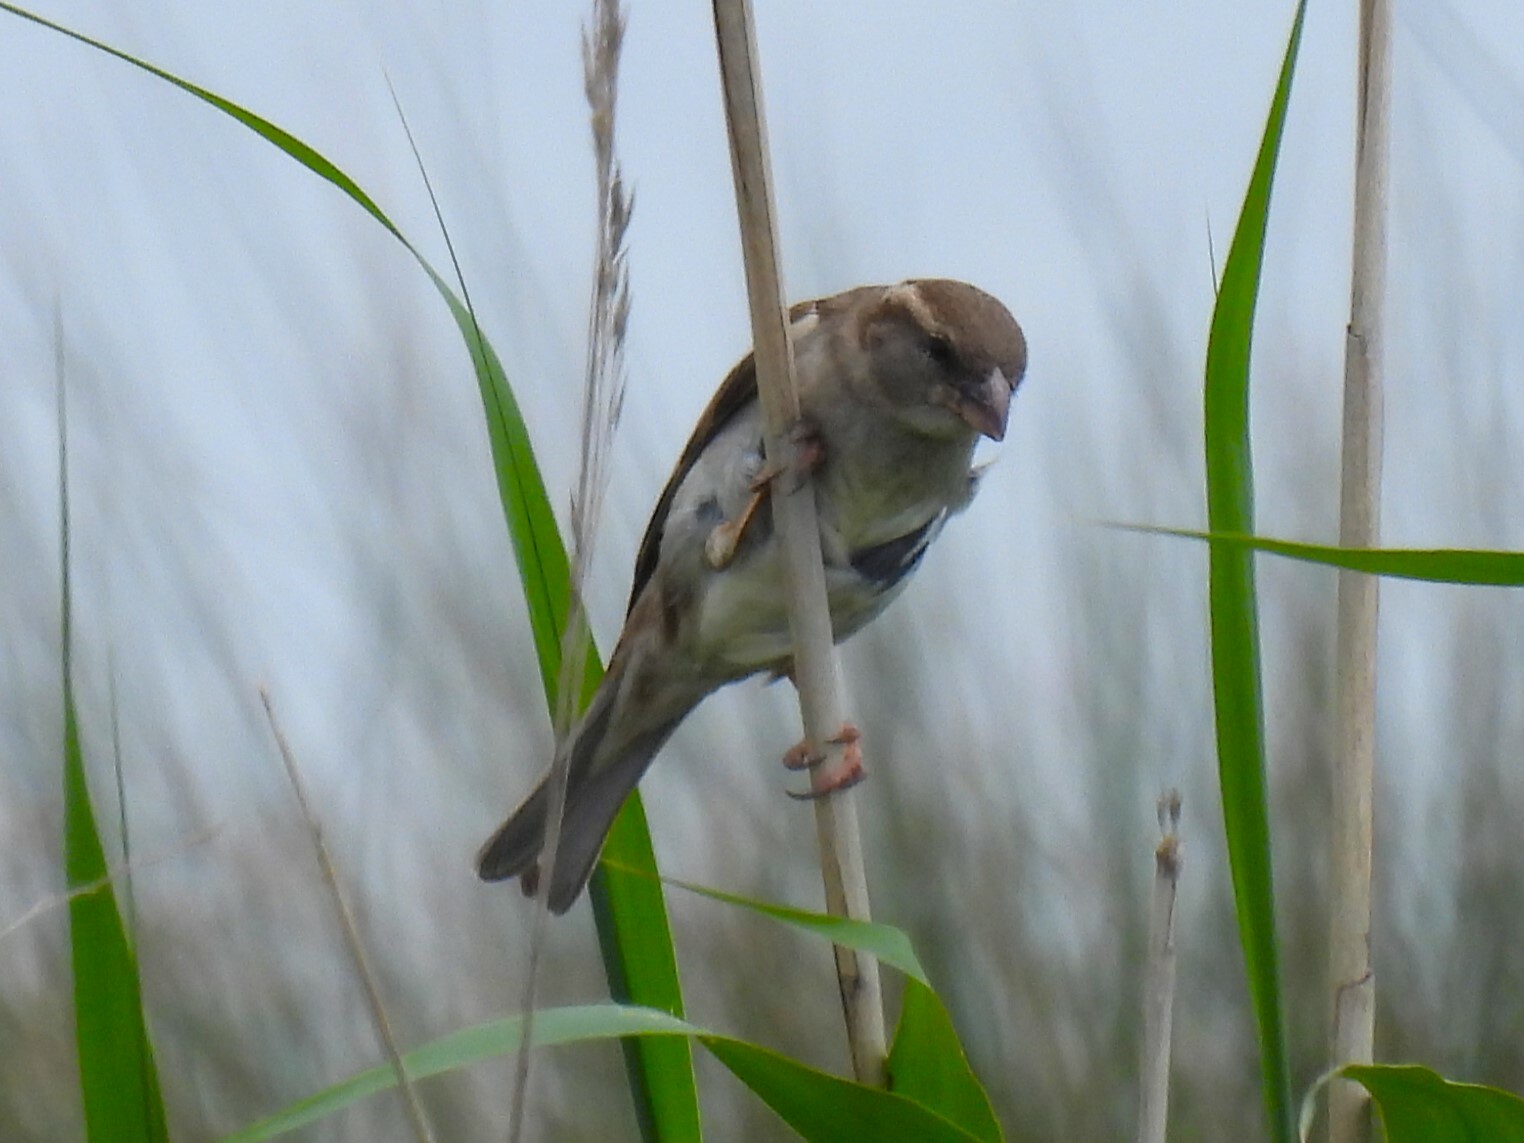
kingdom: Animalia
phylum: Chordata
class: Aves
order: Passeriformes
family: Passeridae
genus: Passer
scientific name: Passer domesticus
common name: House sparrow
